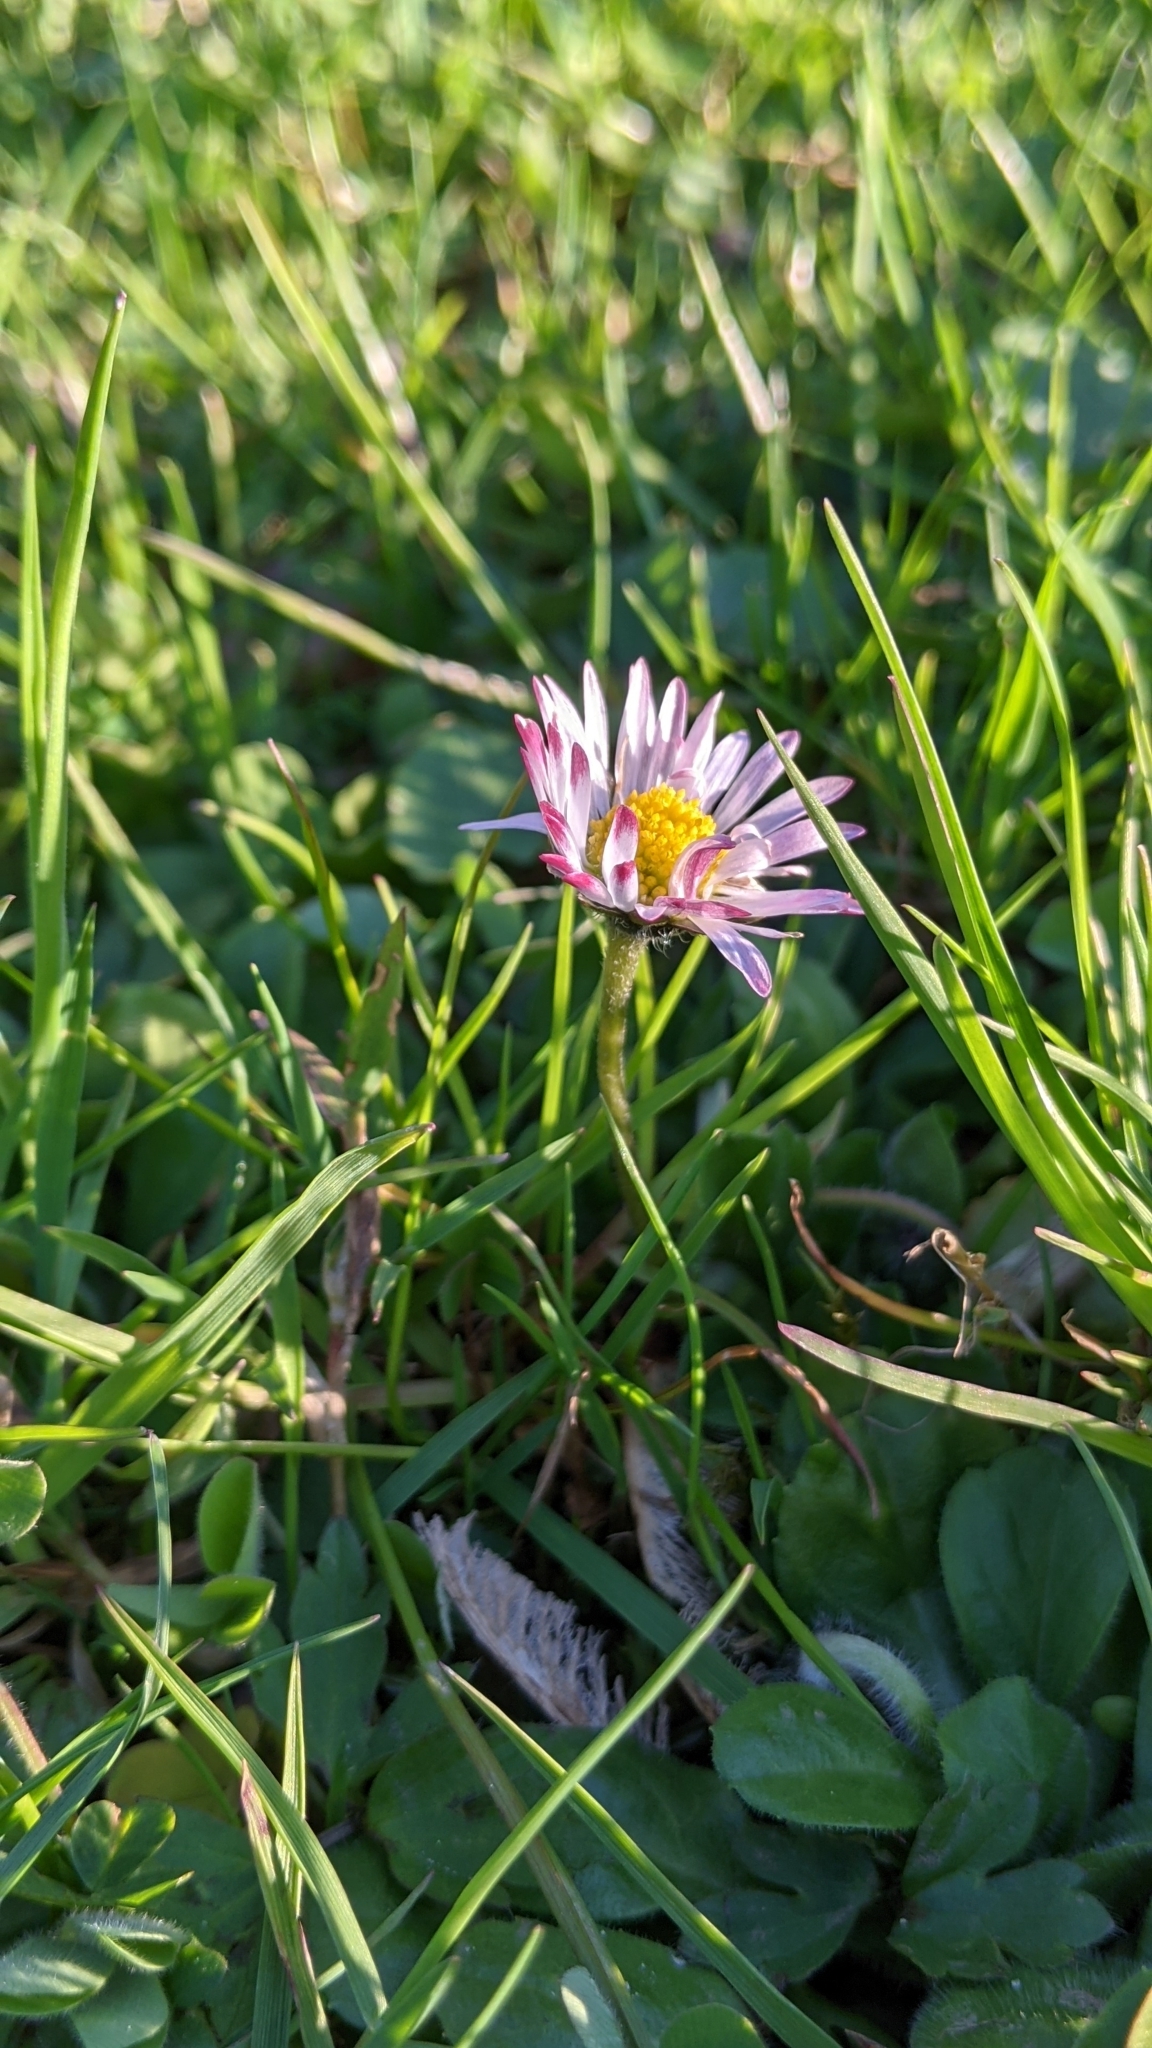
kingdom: Plantae
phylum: Tracheophyta
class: Magnoliopsida
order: Asterales
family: Asteraceae
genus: Bellis
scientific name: Bellis perennis
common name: Lawndaisy
